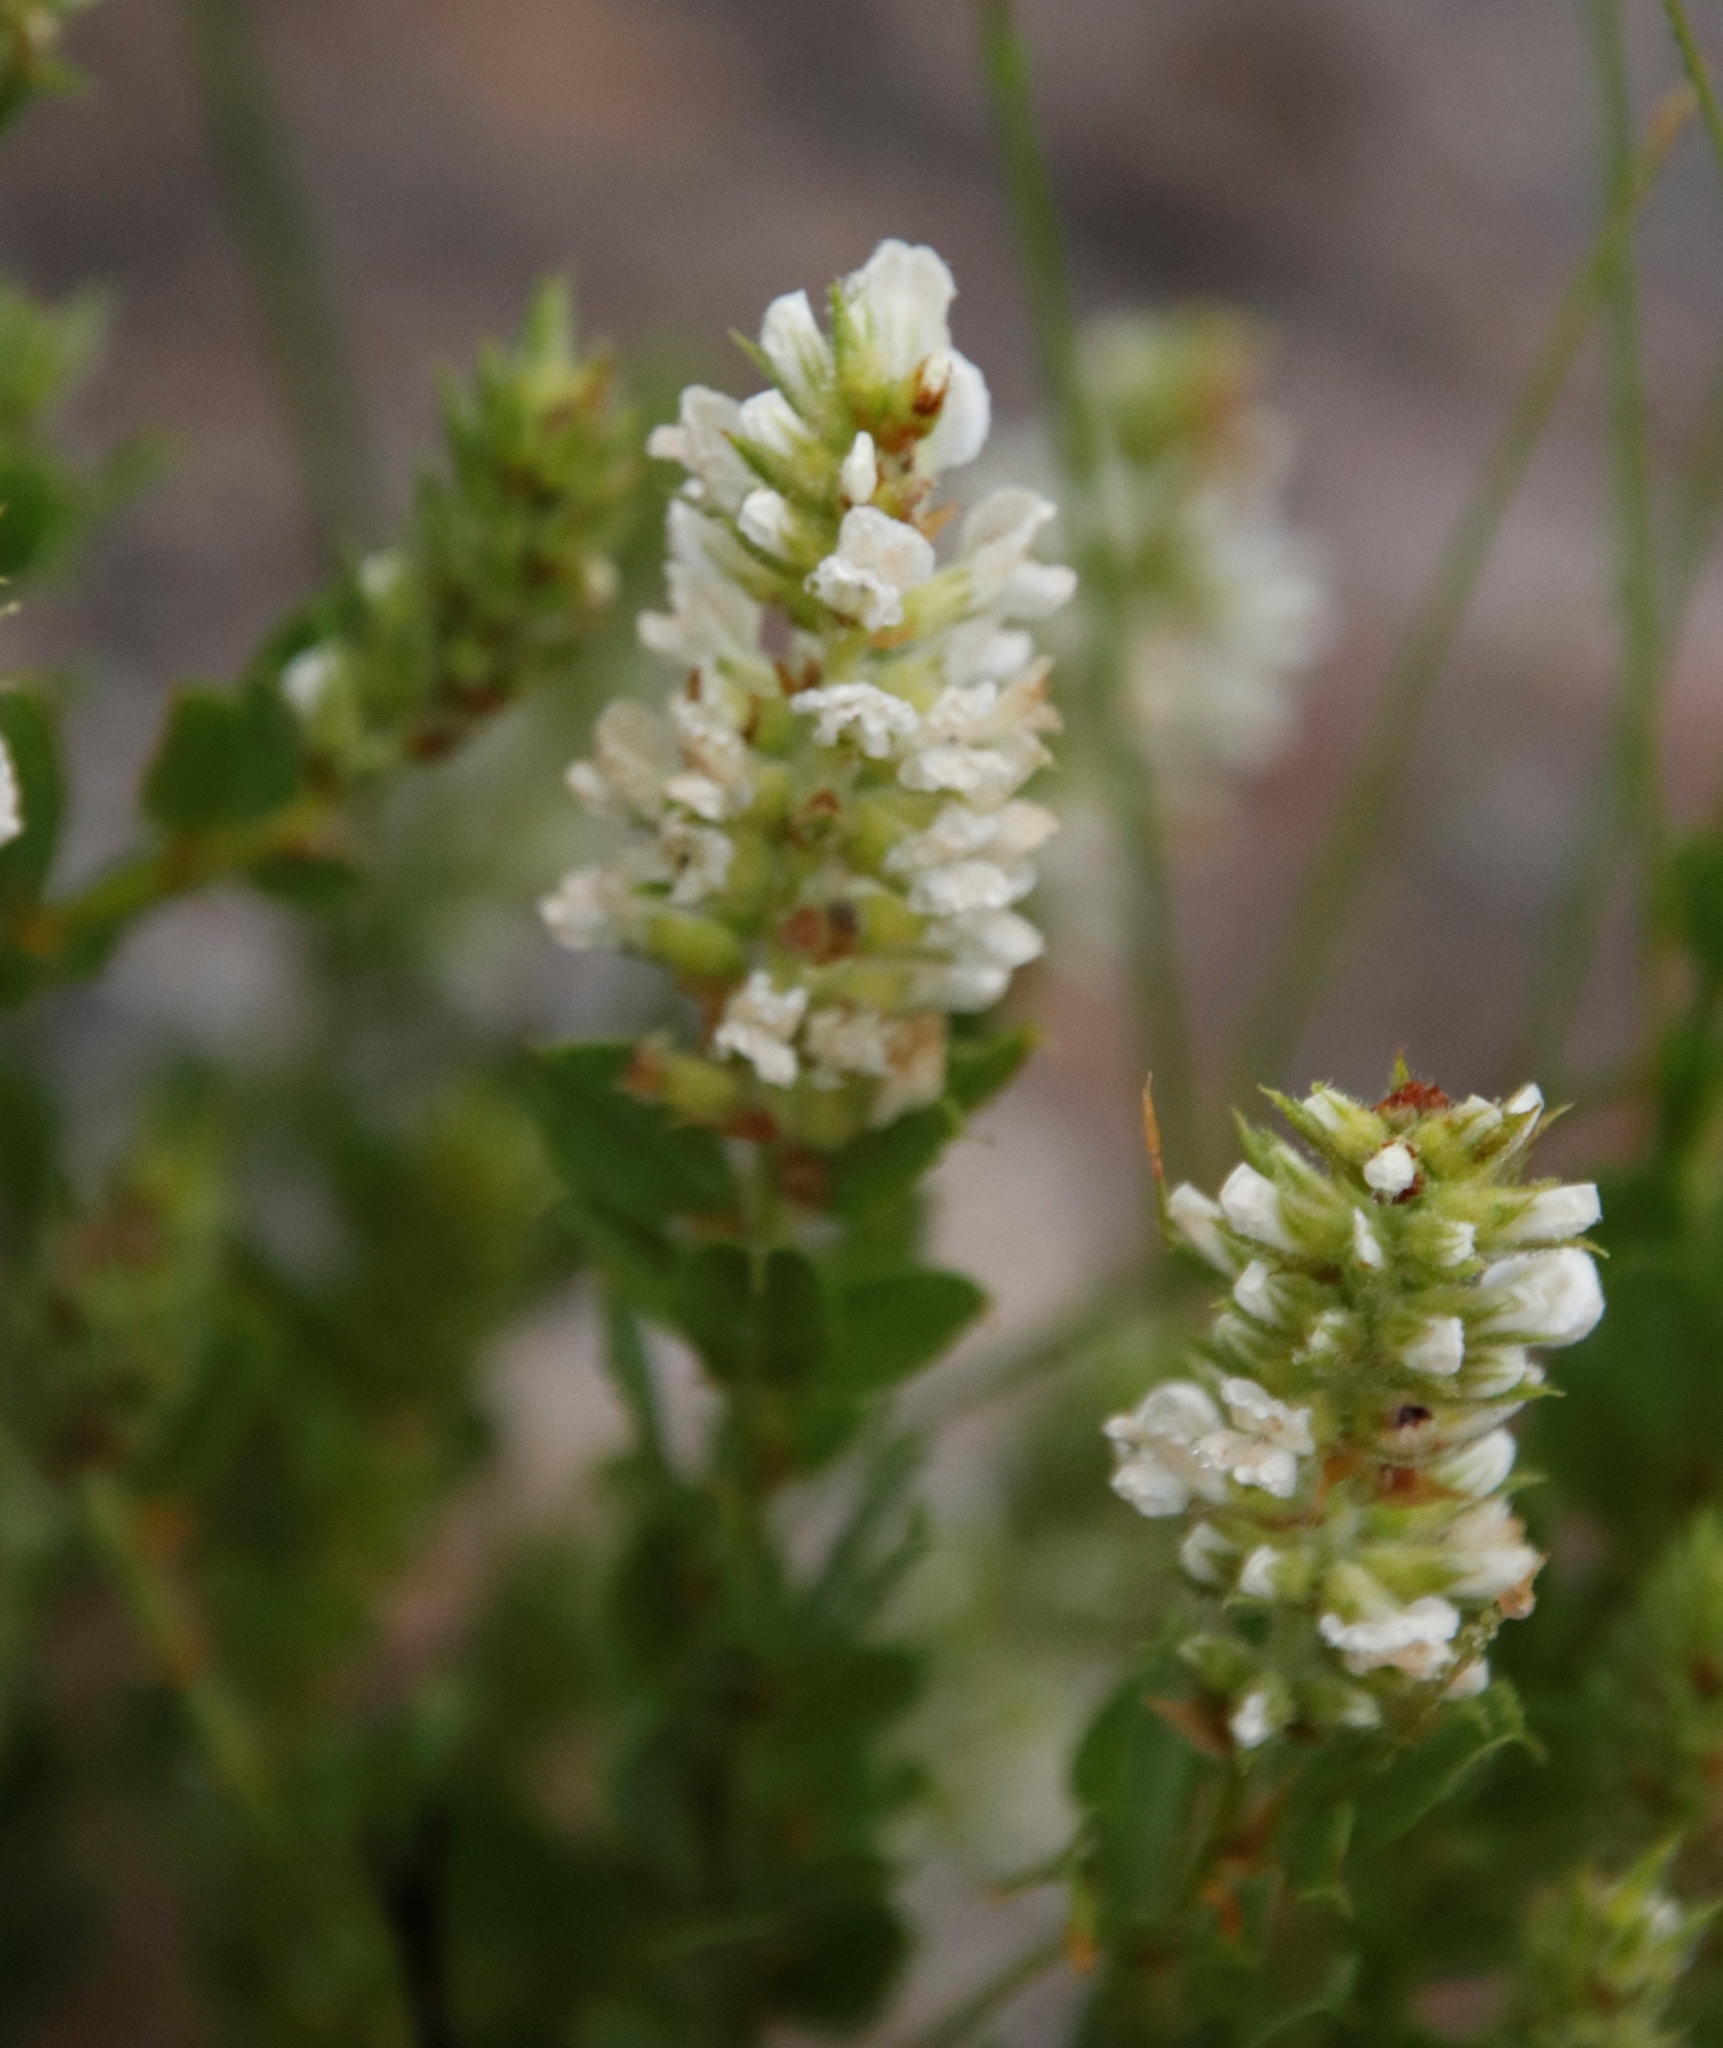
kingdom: Plantae
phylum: Tracheophyta
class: Magnoliopsida
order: Fabales
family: Fabaceae
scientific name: Fabaceae
